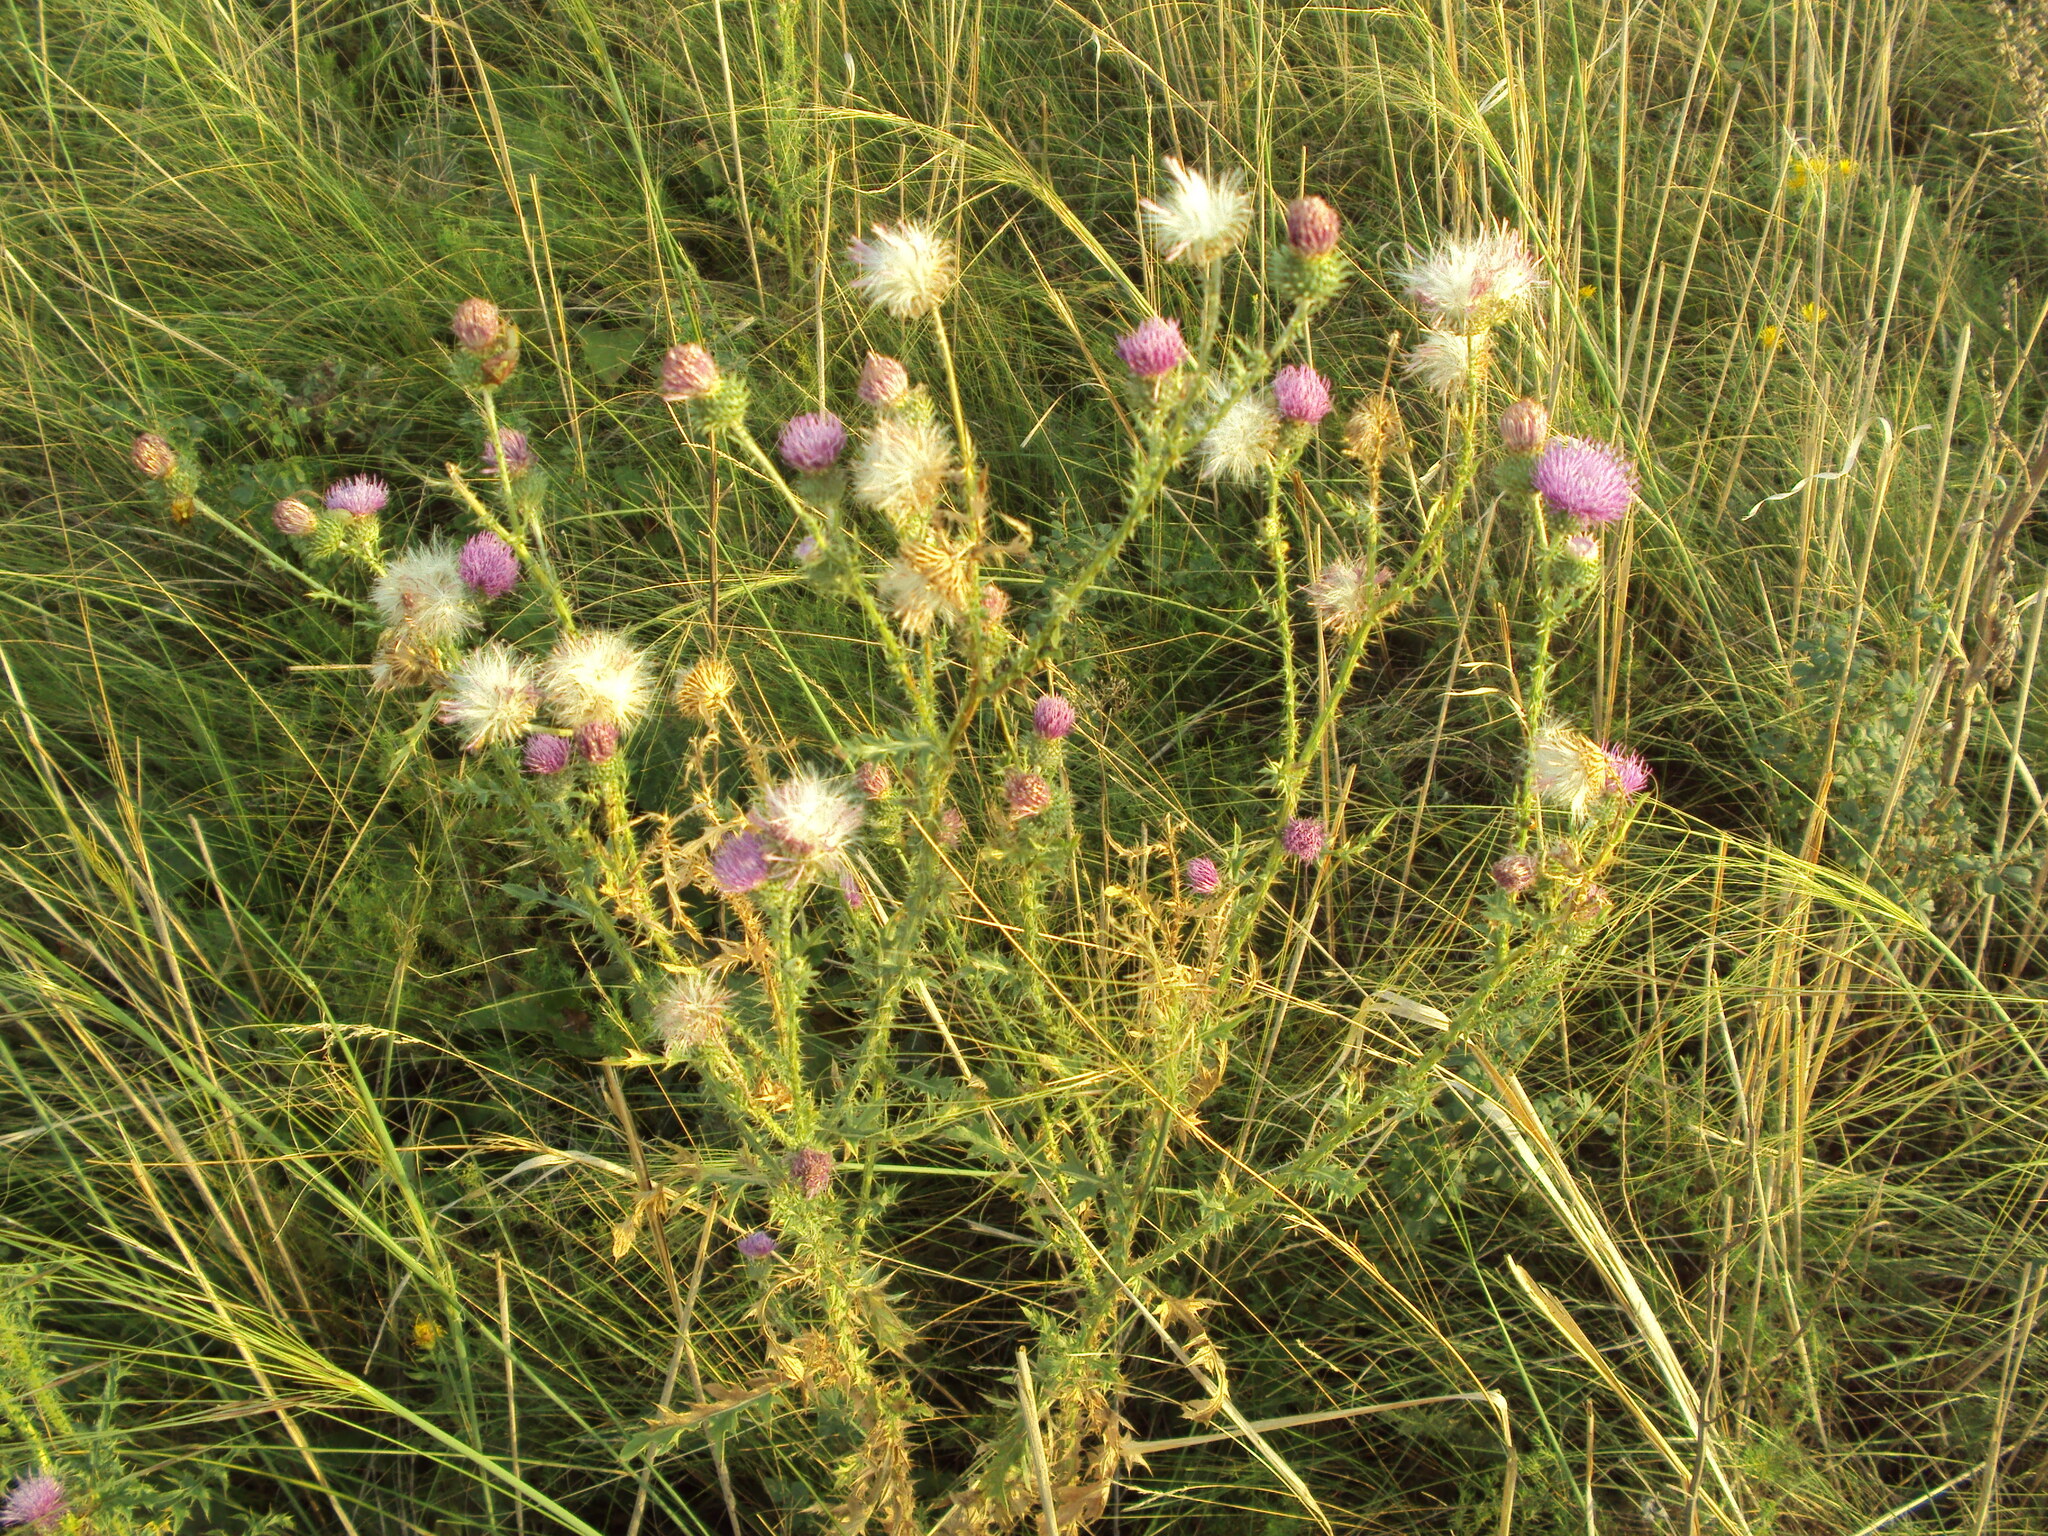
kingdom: Plantae
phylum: Tracheophyta
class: Magnoliopsida
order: Asterales
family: Asteraceae
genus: Carduus
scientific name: Carduus acanthoides
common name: Plumeless thistle
